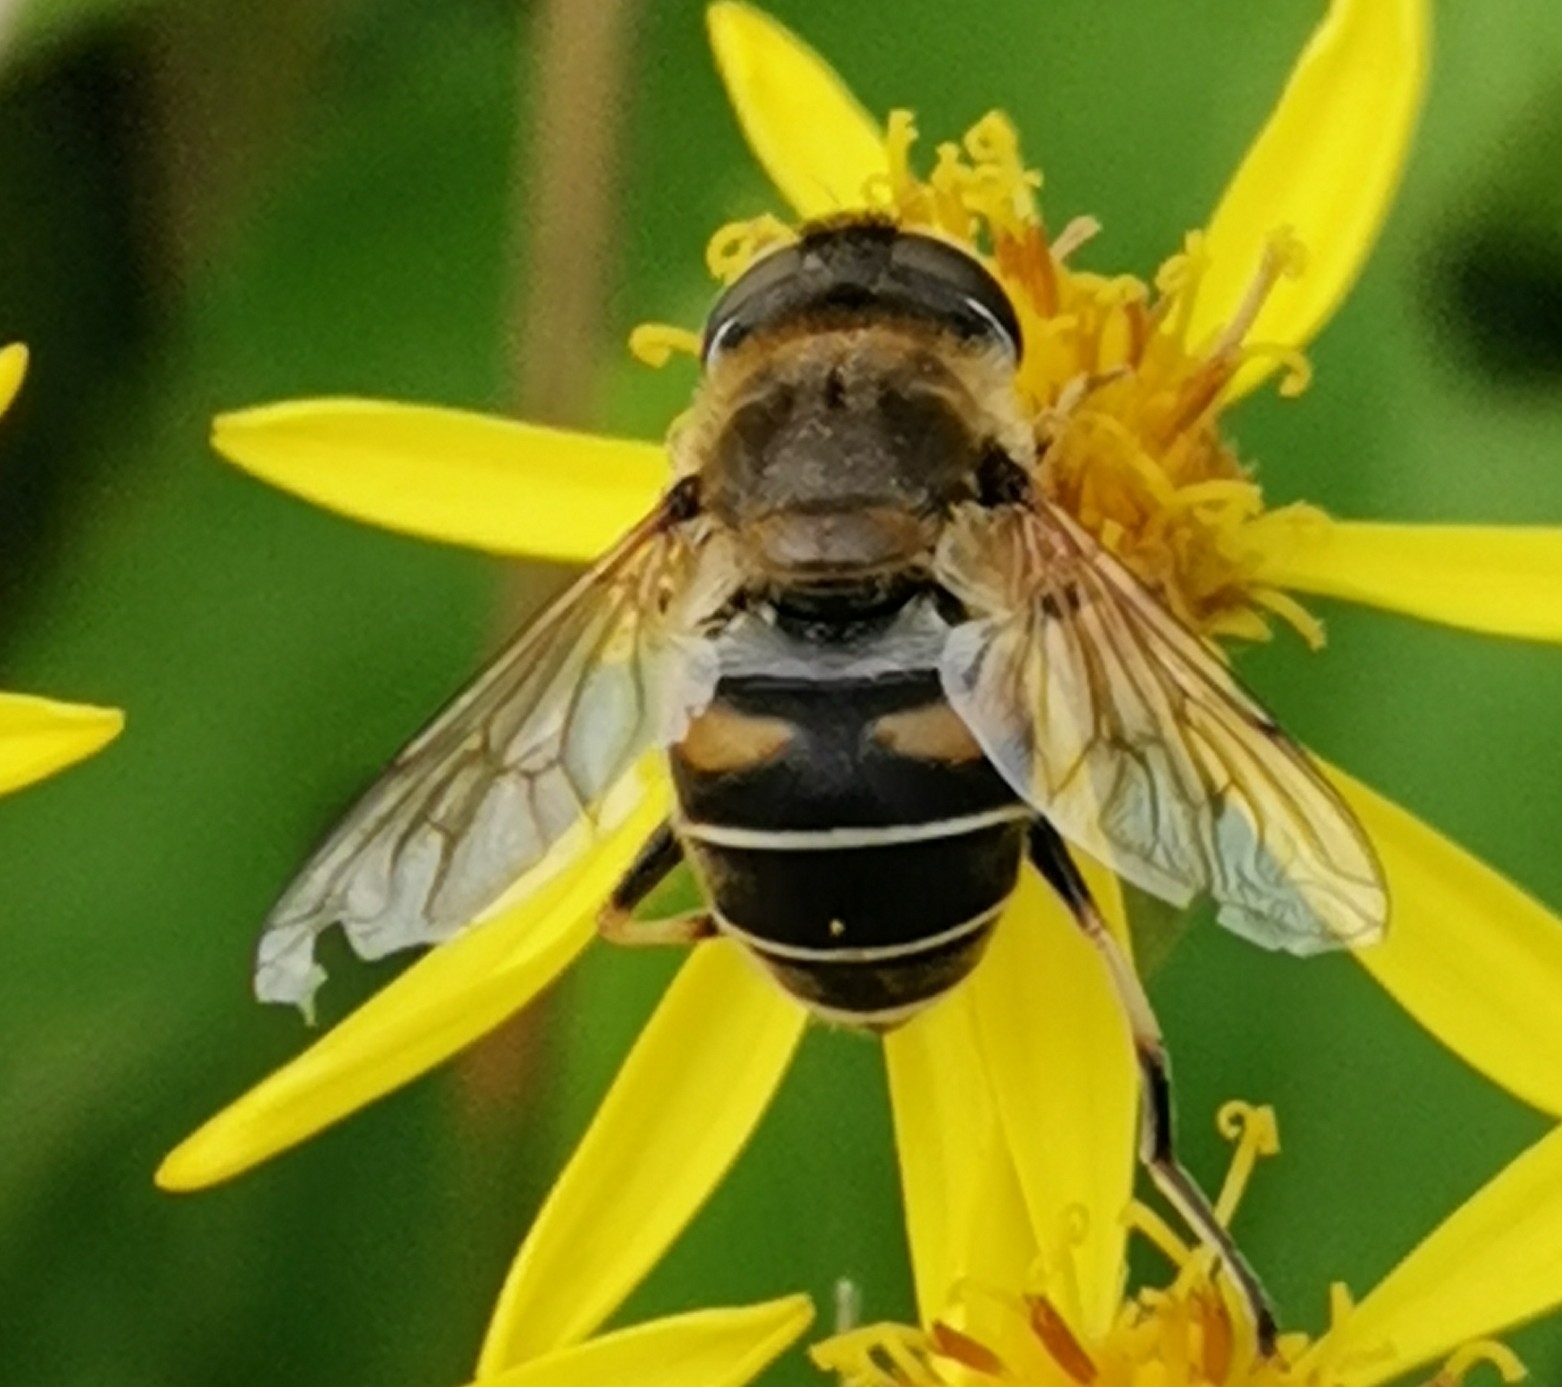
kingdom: Animalia
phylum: Arthropoda
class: Insecta
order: Diptera
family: Syrphidae
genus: Eristalis
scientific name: Eristalis nemorum
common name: Orange-spined drone fly
